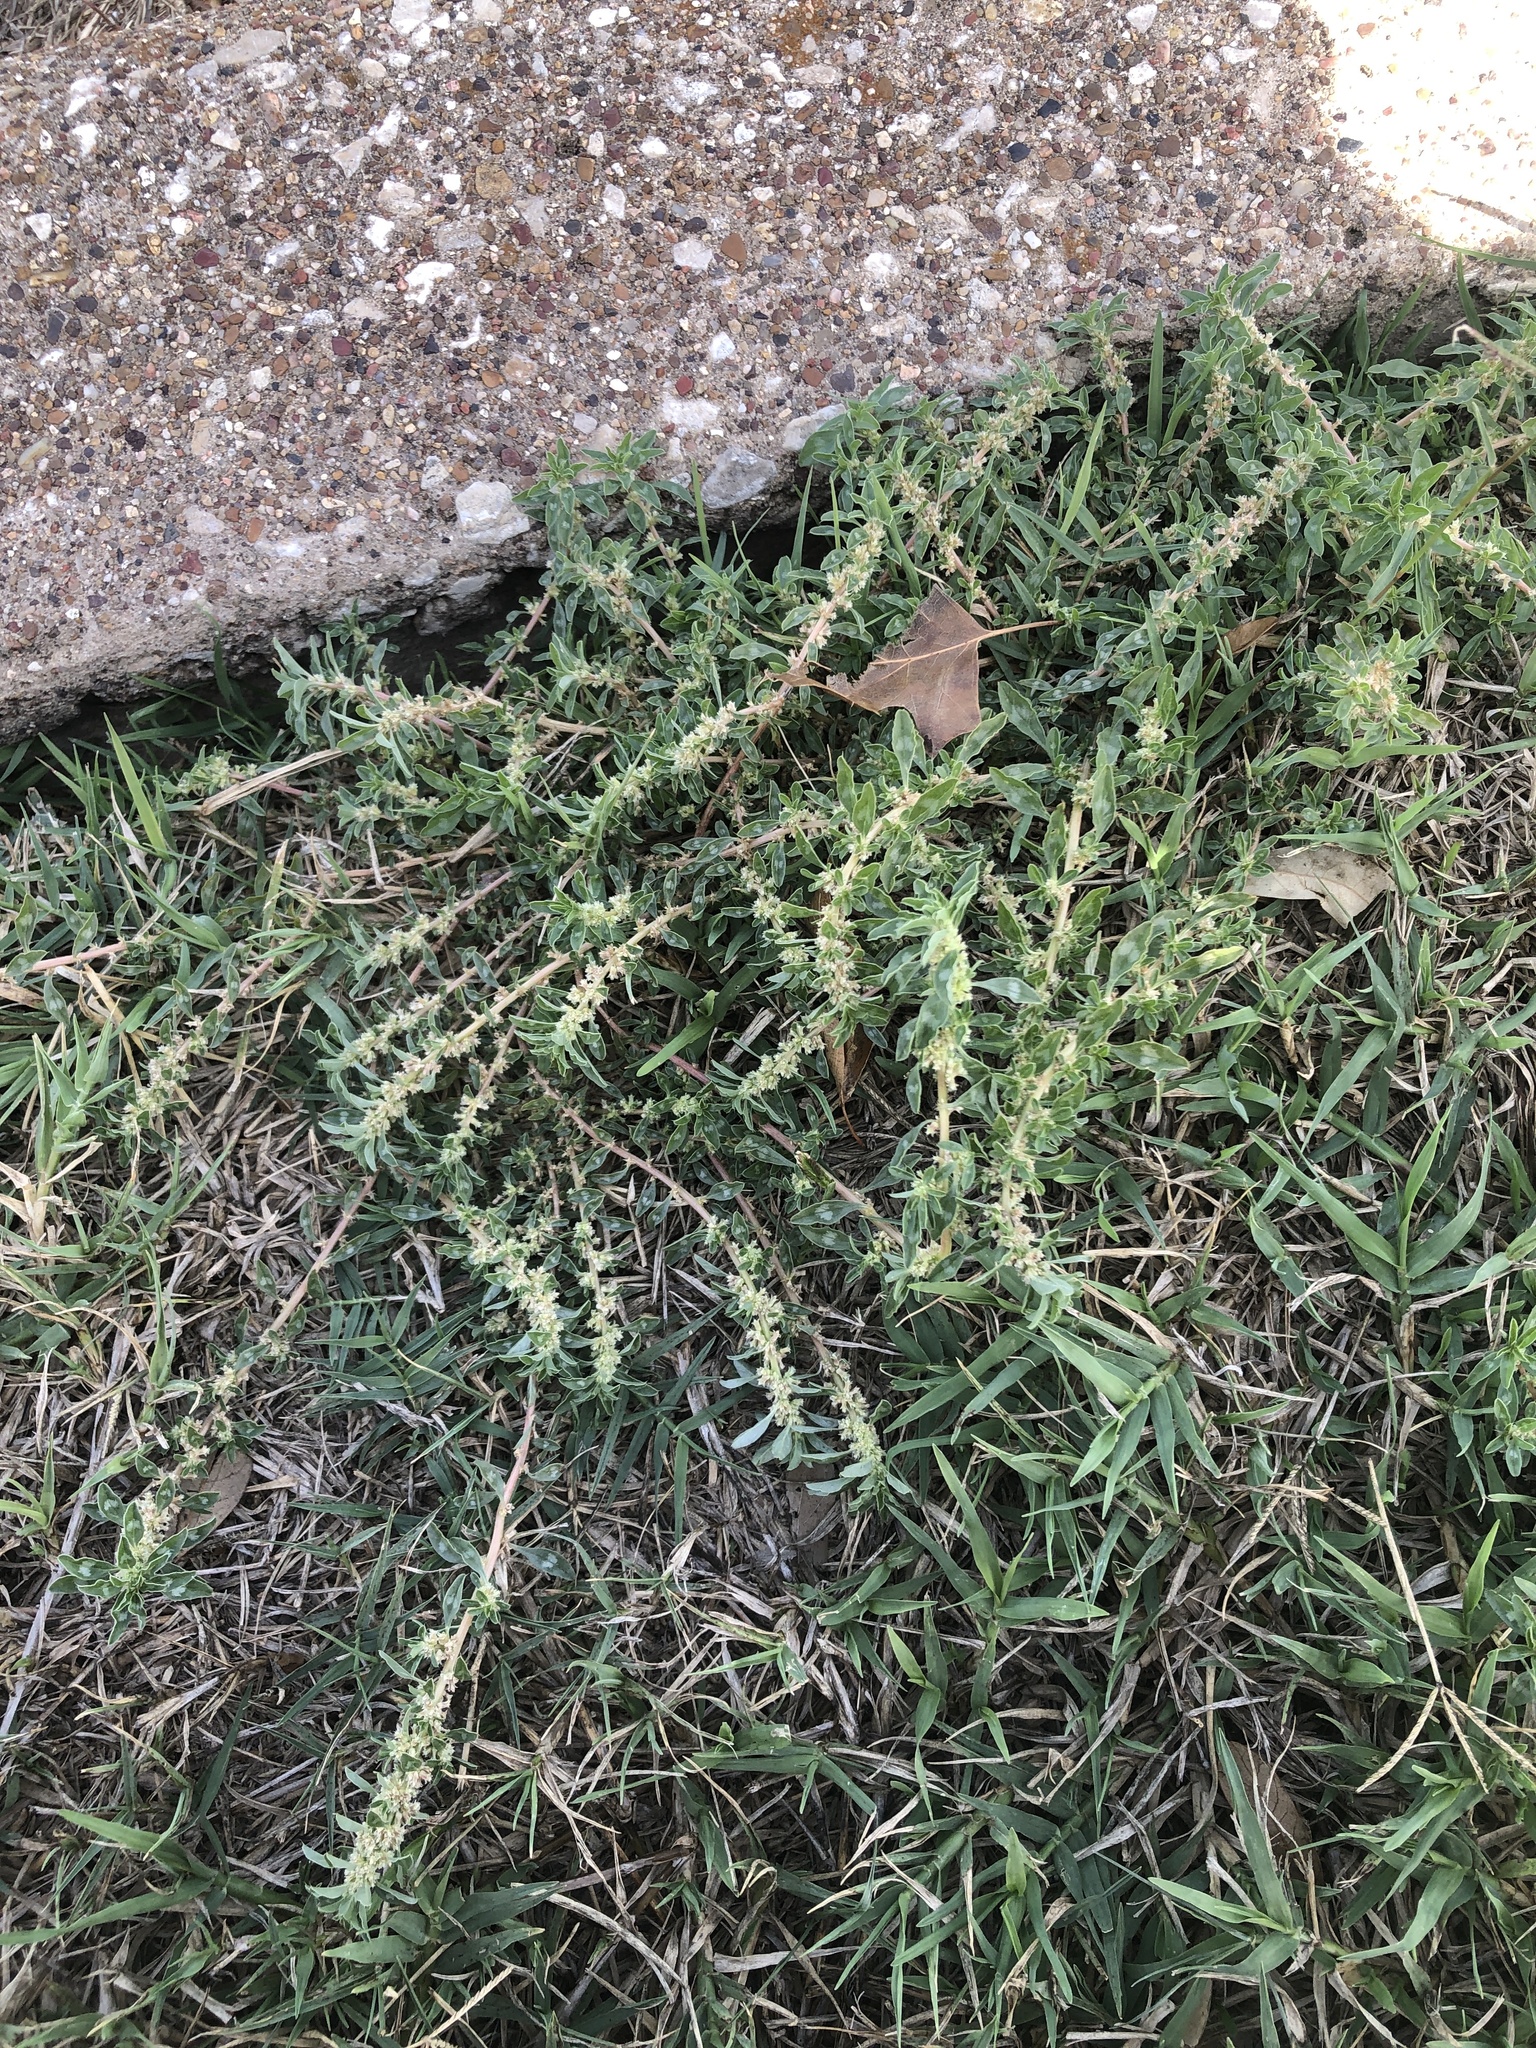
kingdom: Plantae
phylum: Tracheophyta
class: Magnoliopsida
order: Caryophyllales
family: Amaranthaceae
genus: Amaranthus
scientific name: Amaranthus polygonoides
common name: Tropical amaranth
